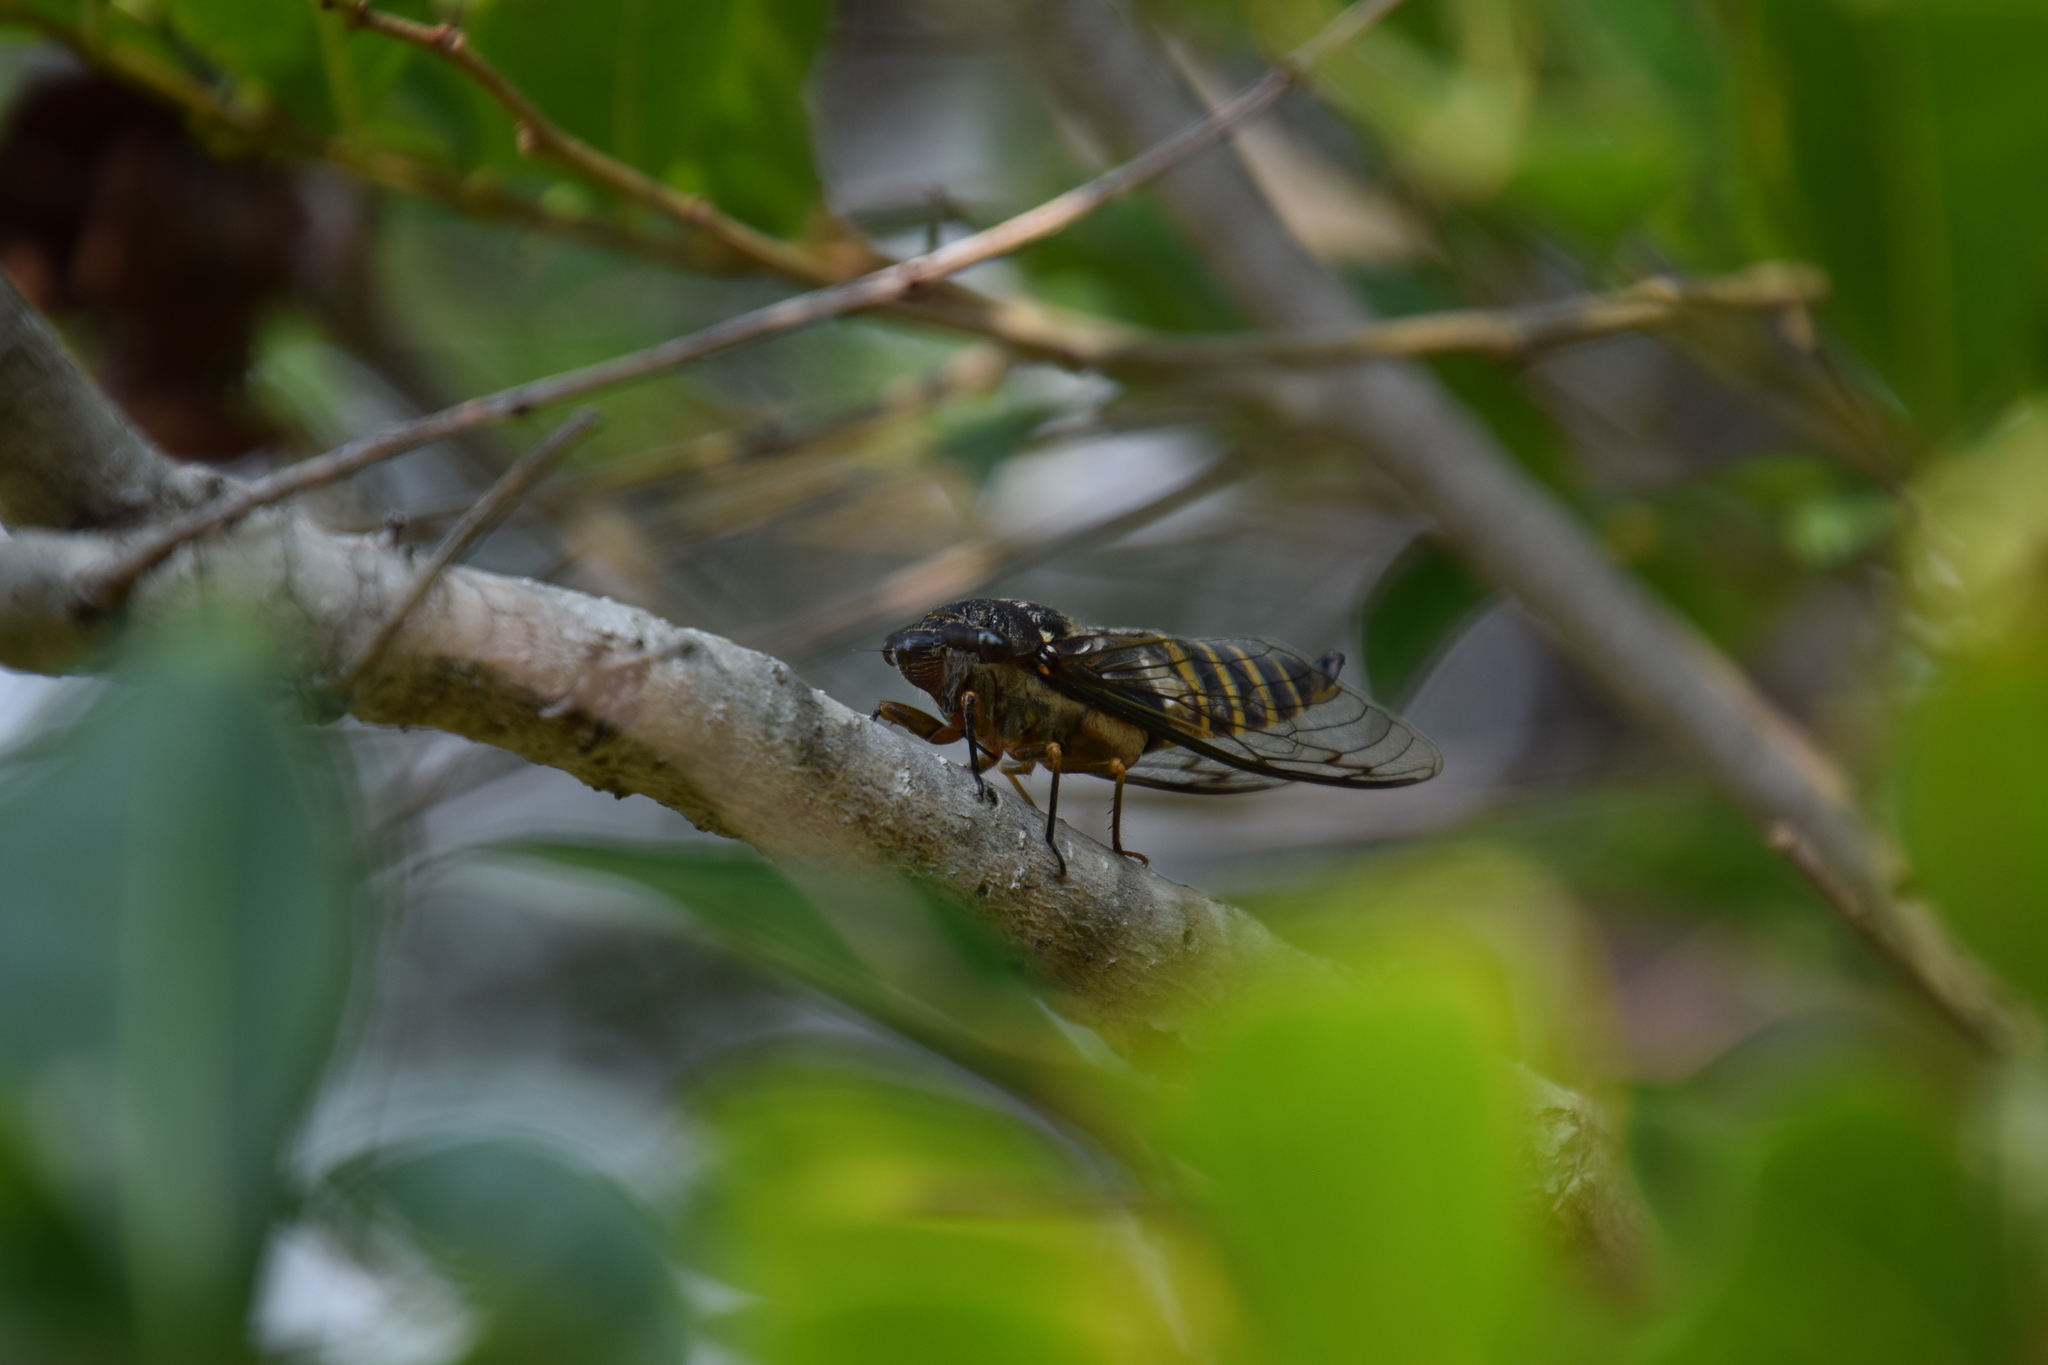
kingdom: Animalia
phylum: Arthropoda
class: Insecta
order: Hemiptera
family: Cicadidae
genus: Psaltoda
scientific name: Psaltoda plaga
